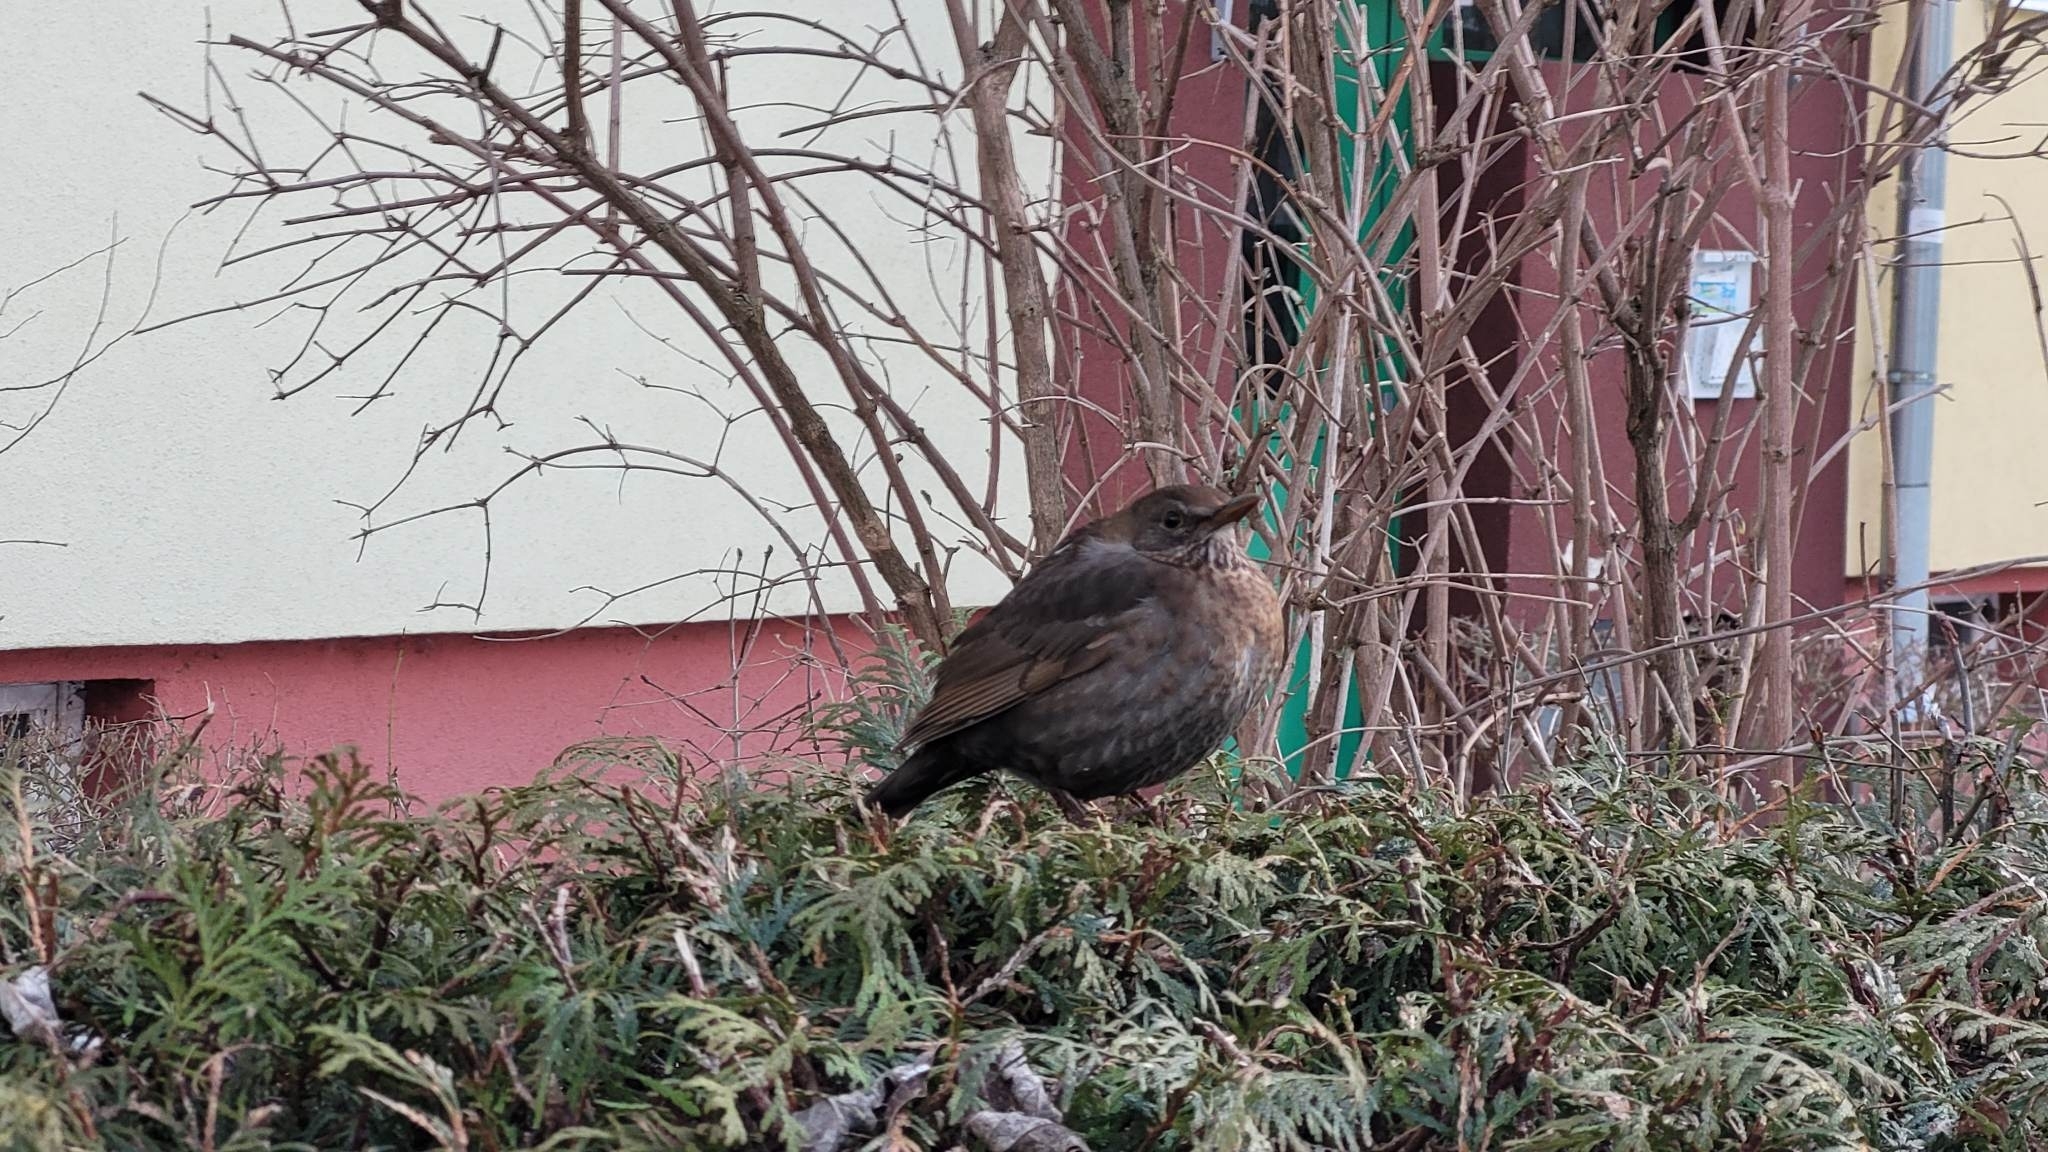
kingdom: Animalia
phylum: Chordata
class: Aves
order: Passeriformes
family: Turdidae
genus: Turdus
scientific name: Turdus merula
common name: Common blackbird
